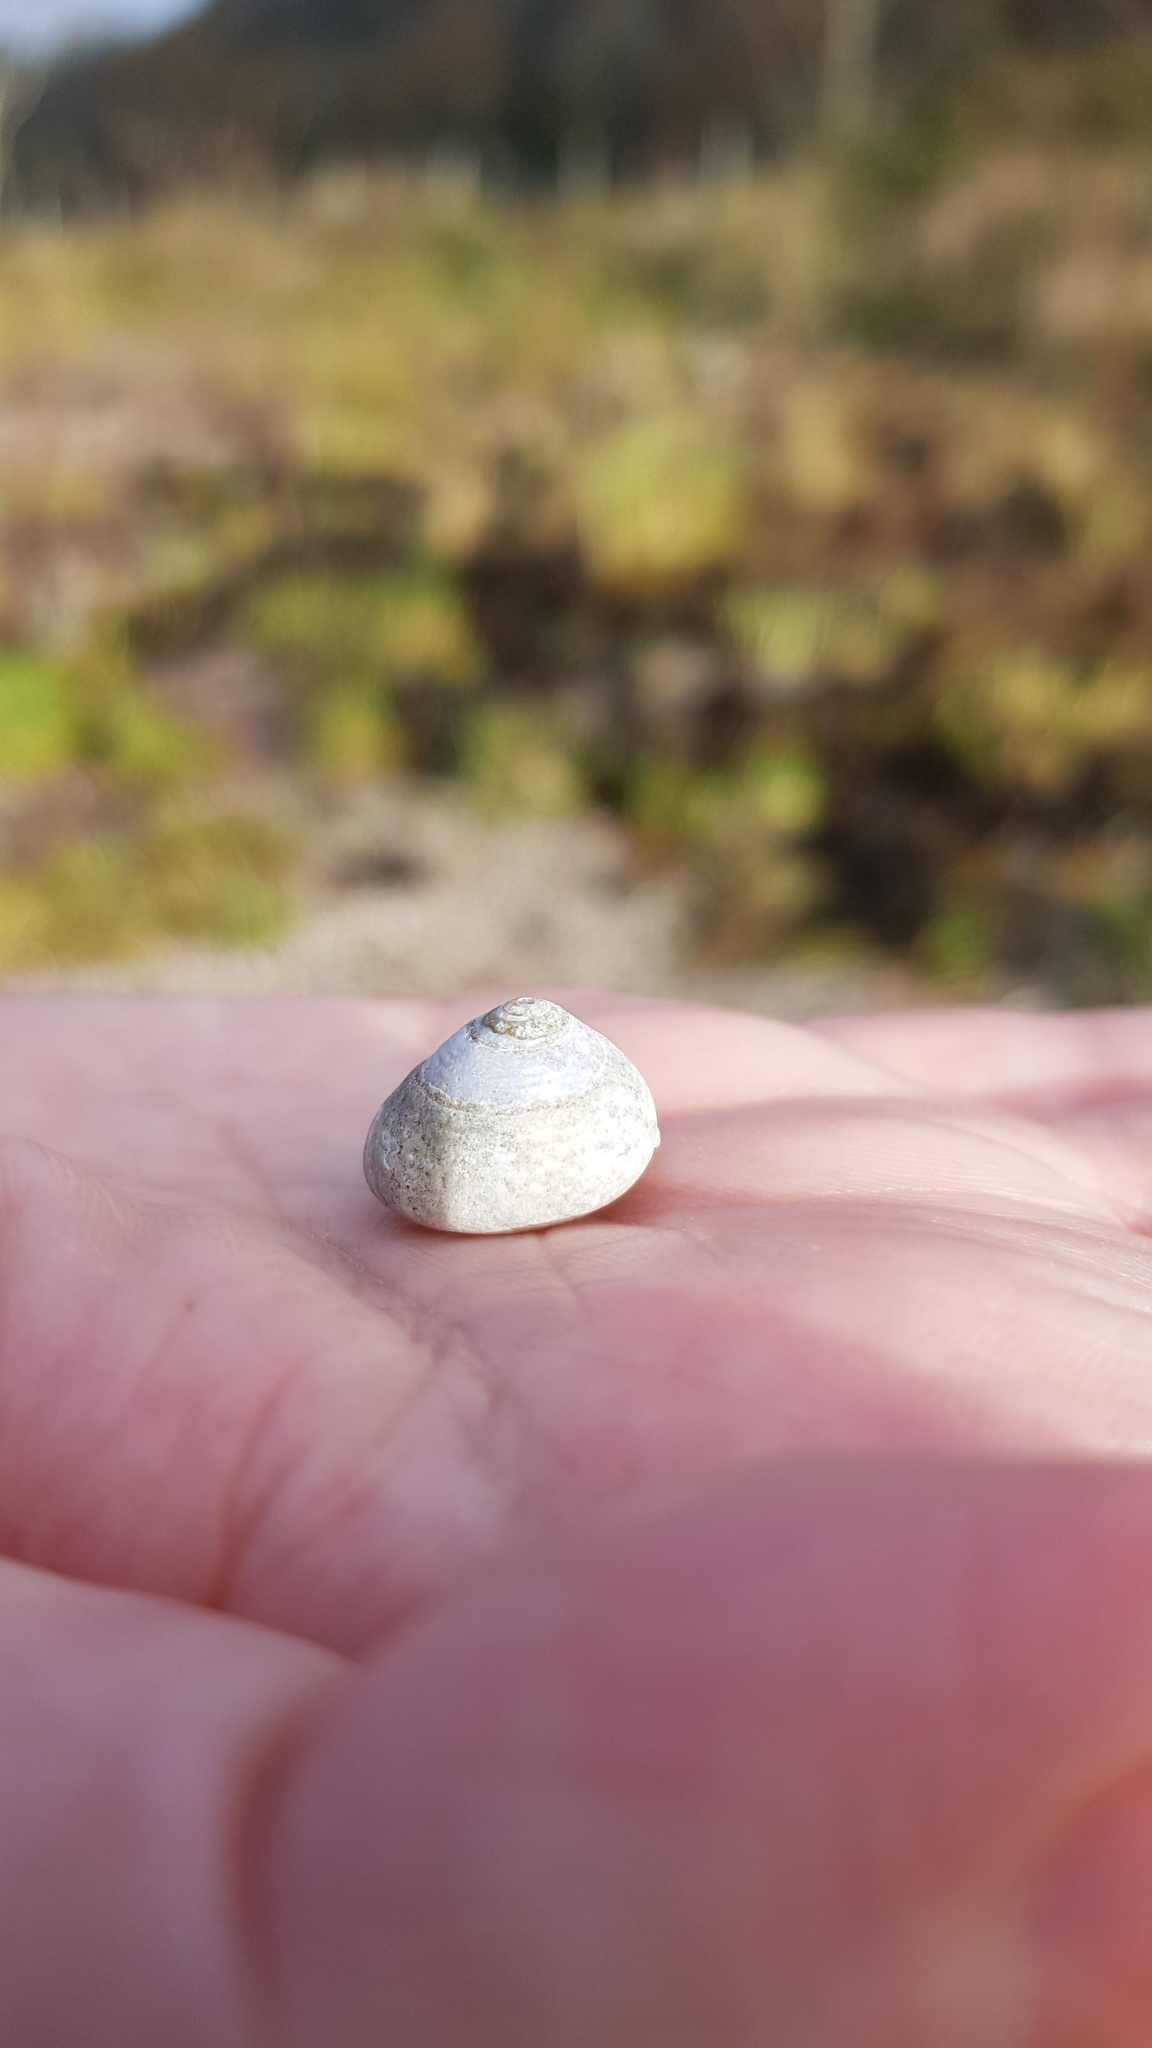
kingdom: Animalia
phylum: Mollusca
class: Gastropoda
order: Trochida
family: Trochidae
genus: Steromphala
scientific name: Steromphala umbilicalis
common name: Flat top shell
